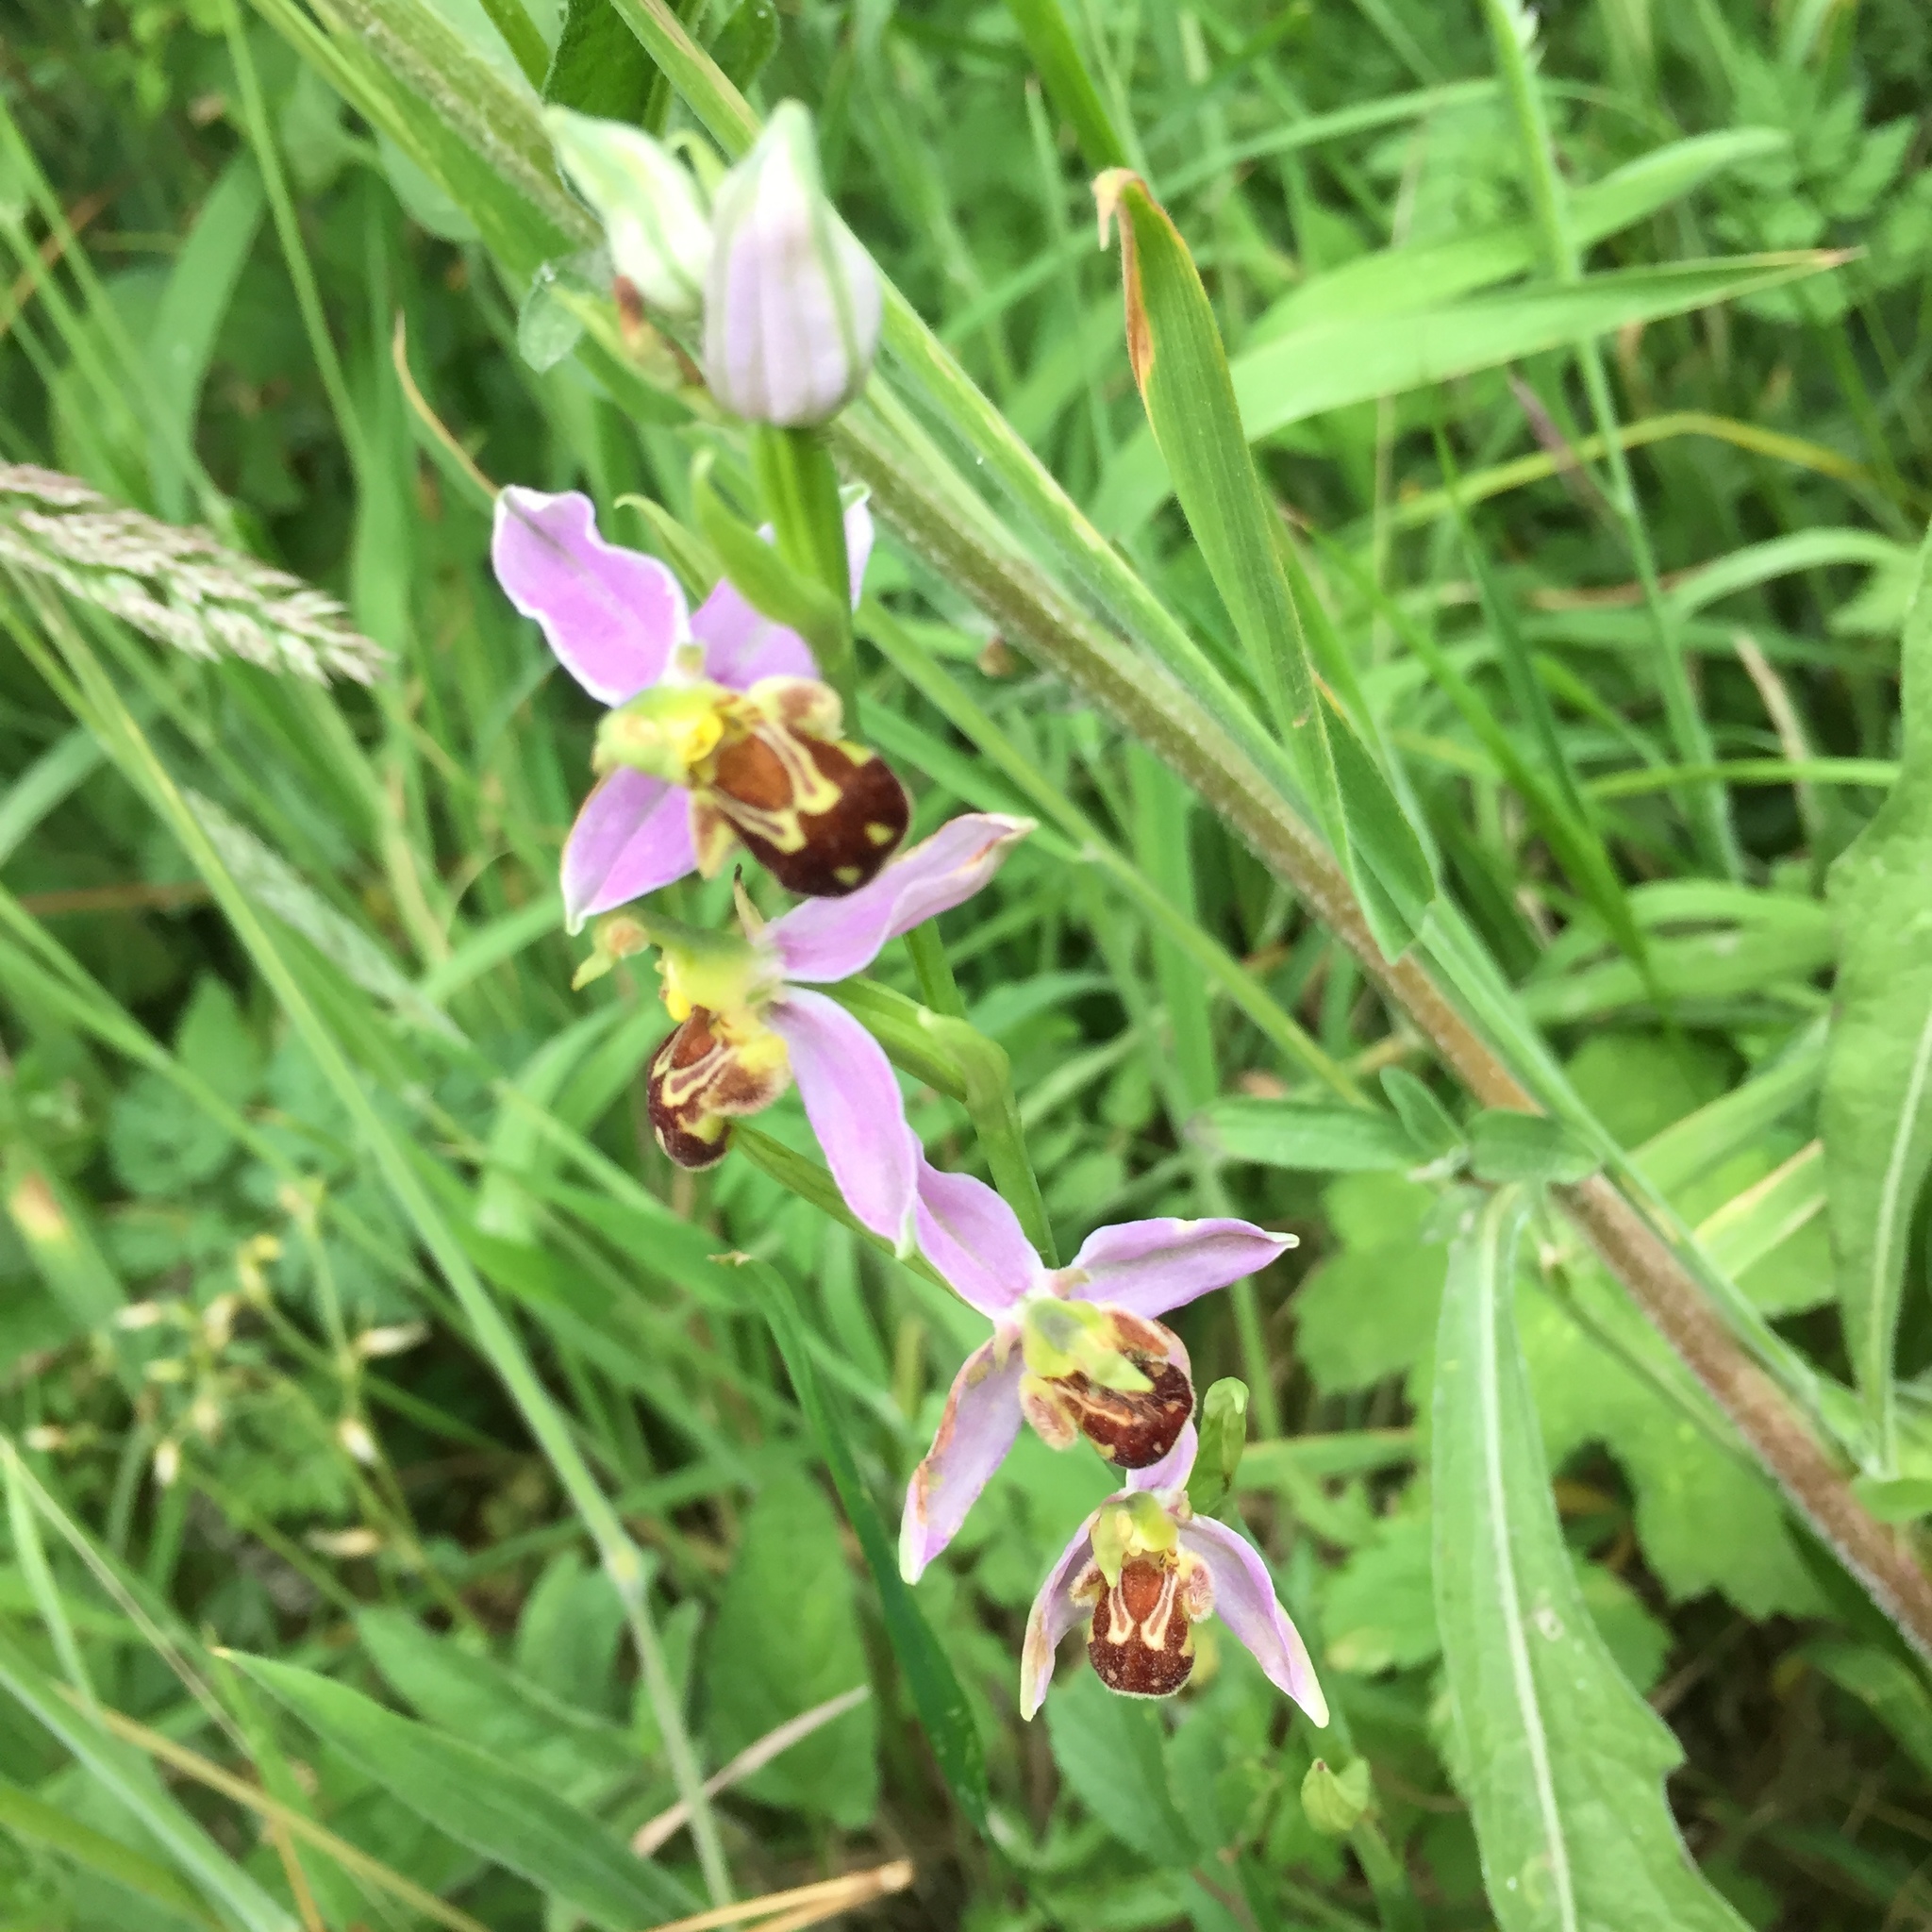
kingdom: Plantae
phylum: Tracheophyta
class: Liliopsida
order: Asparagales
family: Orchidaceae
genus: Ophrys
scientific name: Ophrys apifera
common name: Bee orchid
